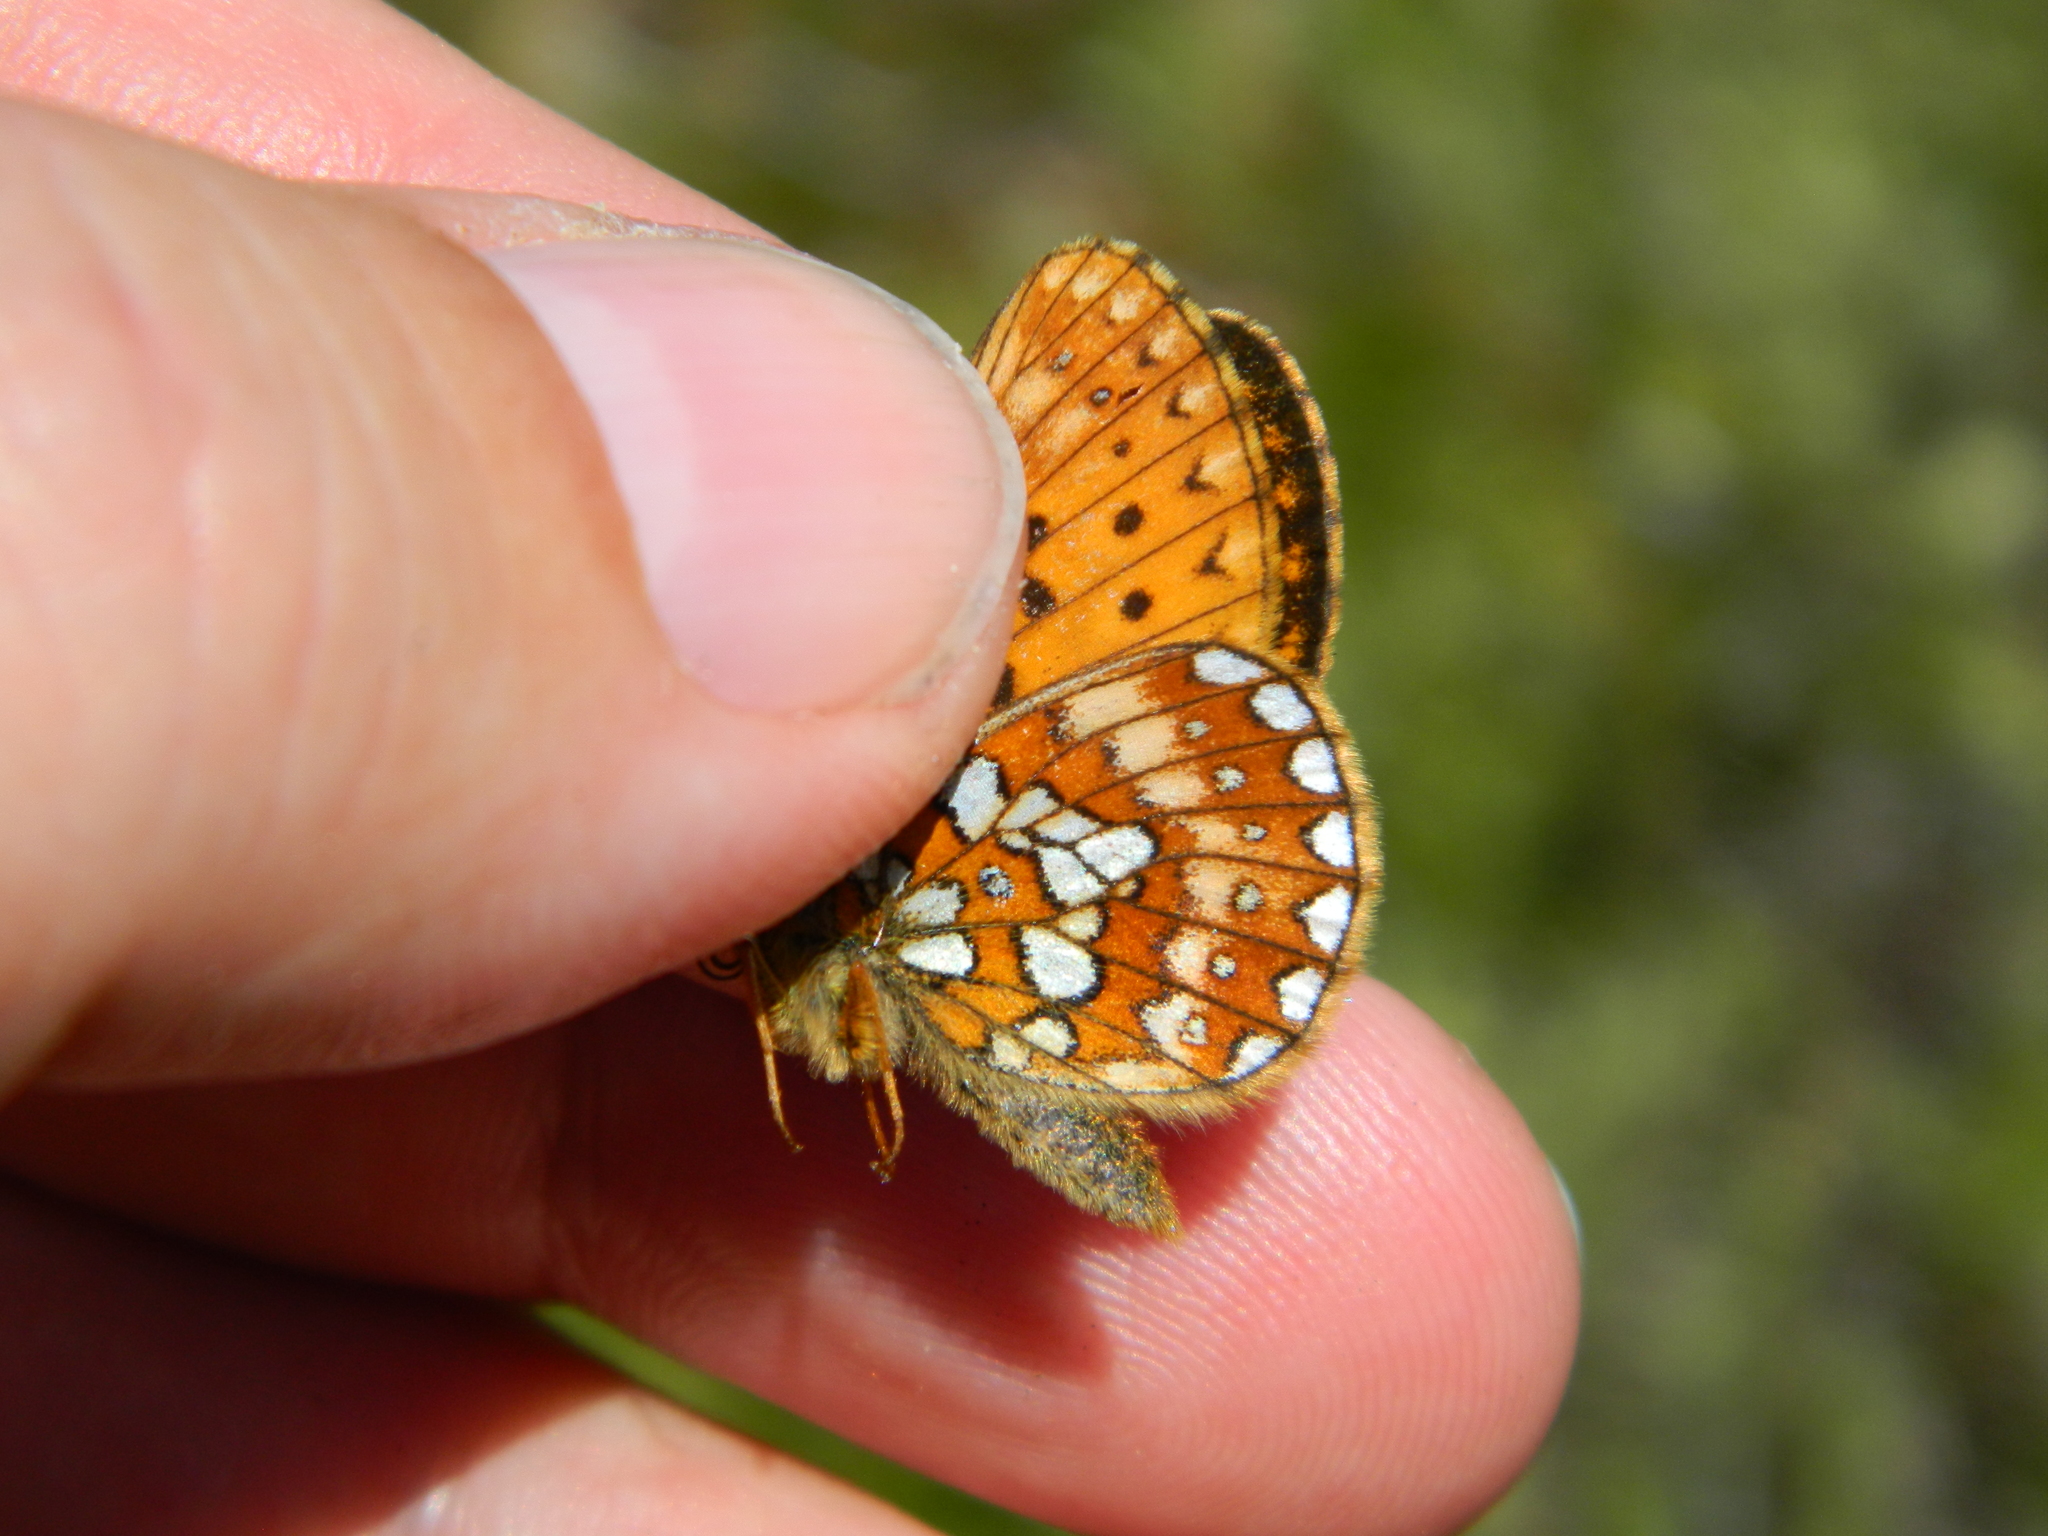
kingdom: Animalia
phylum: Arthropoda
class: Insecta
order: Lepidoptera
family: Nymphalidae
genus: Boloria
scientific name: Boloria eunomia
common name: Bog fritillary
